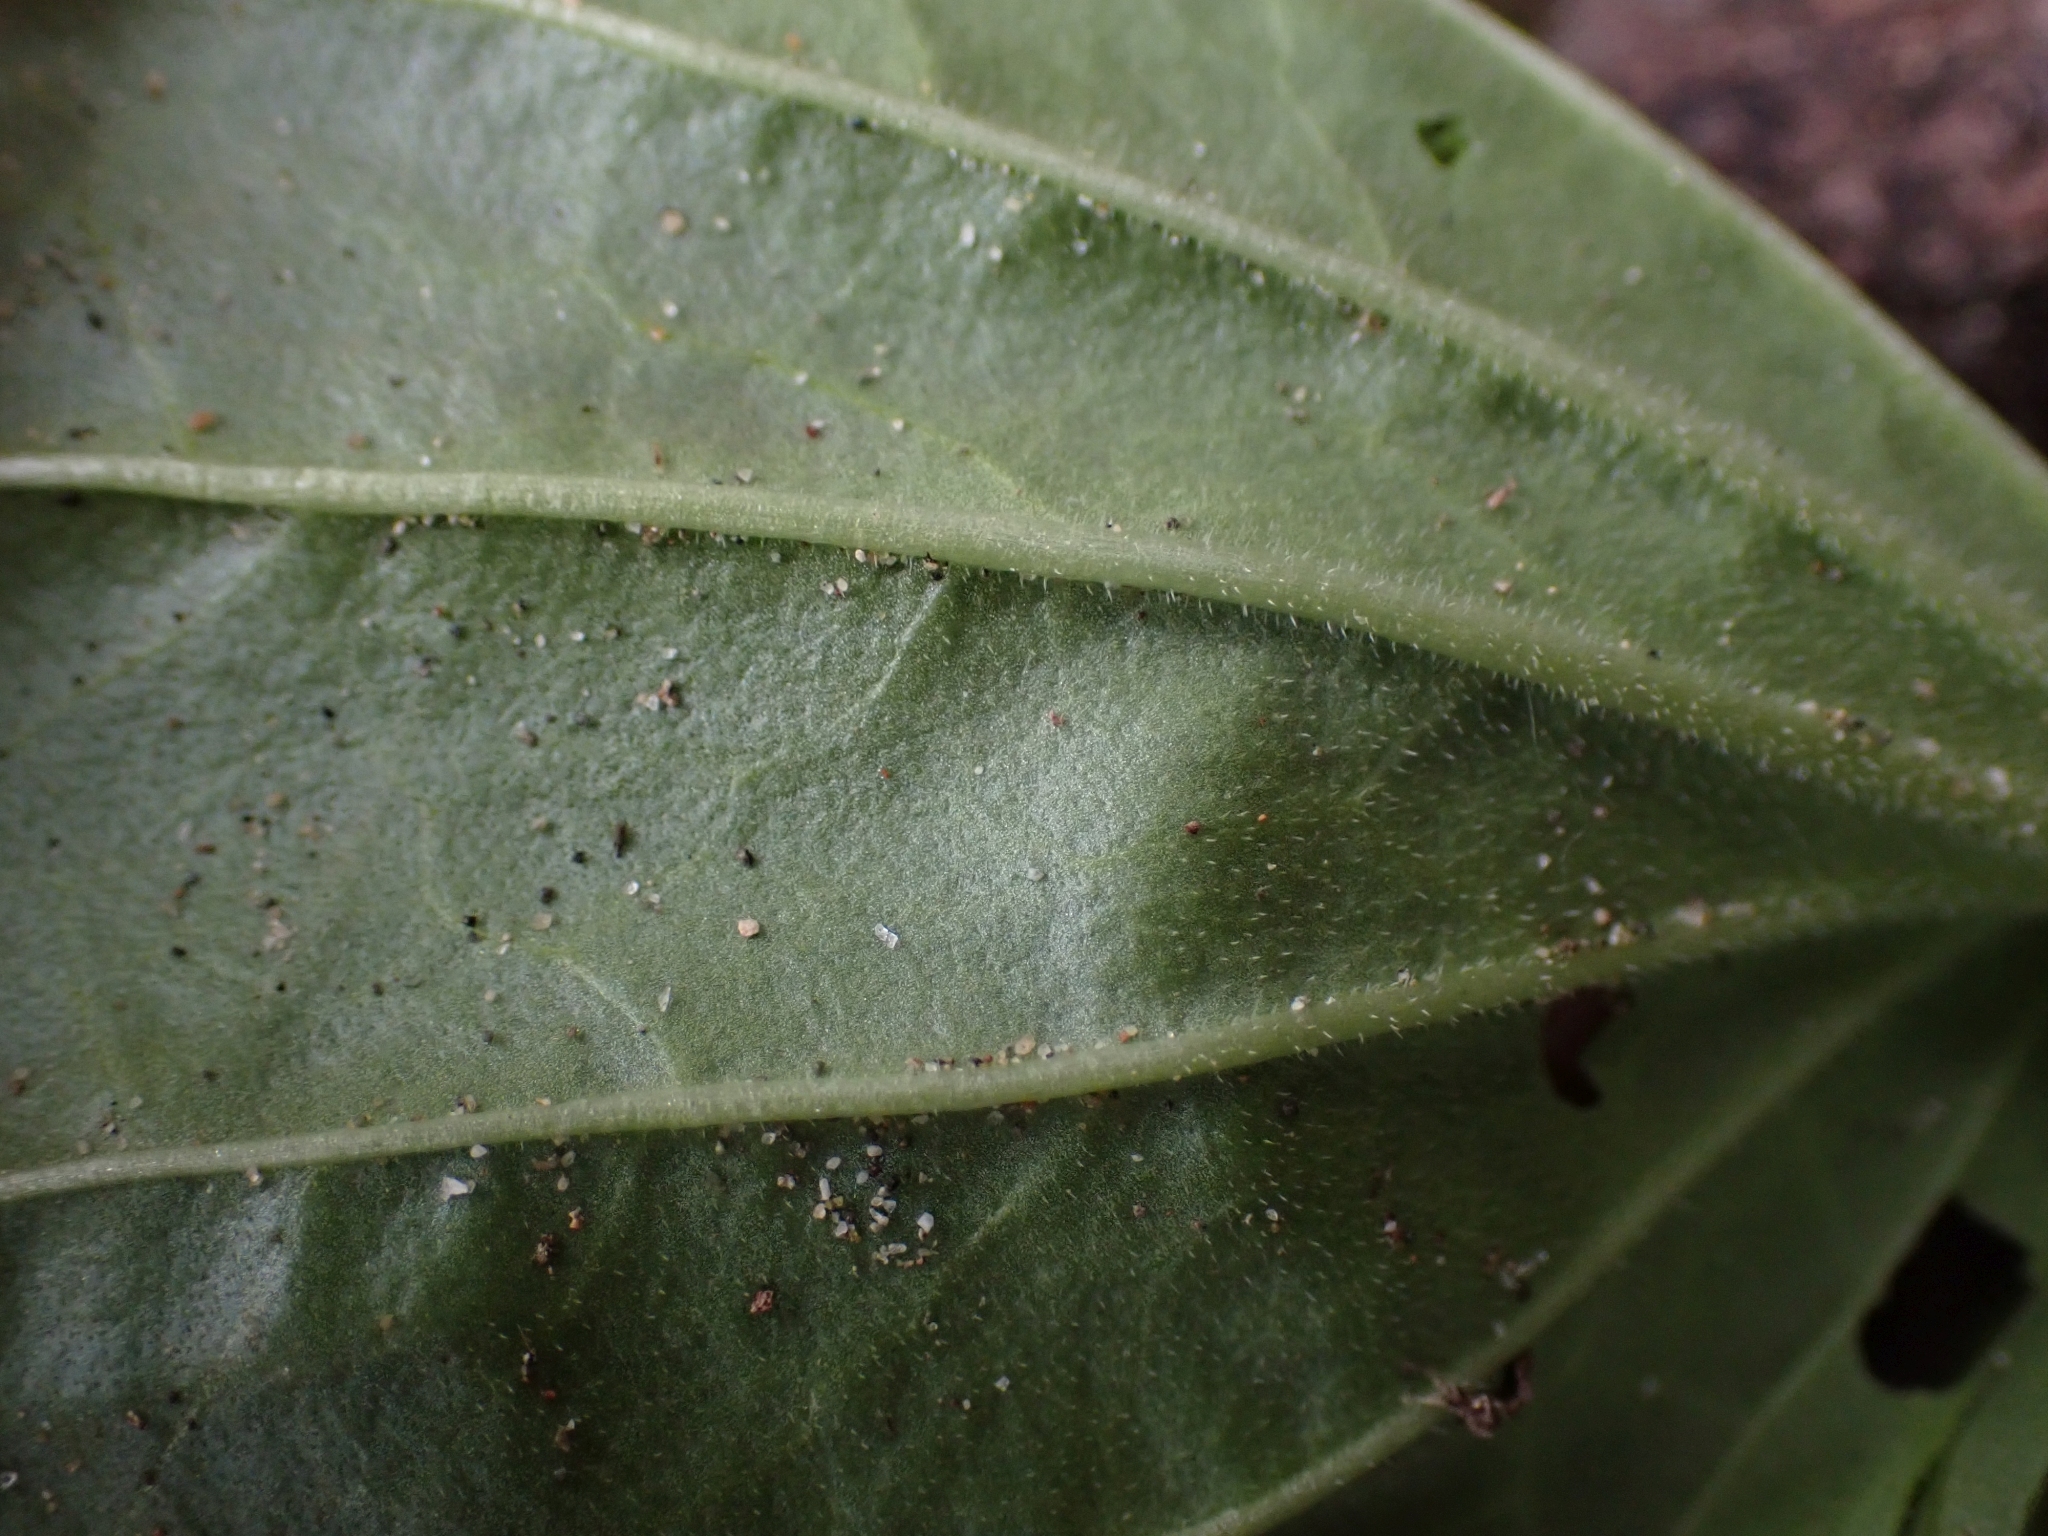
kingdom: Plantae
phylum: Tracheophyta
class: Magnoliopsida
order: Lamiales
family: Plantaginaceae
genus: Plantago
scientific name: Plantago major
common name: Common plantain
